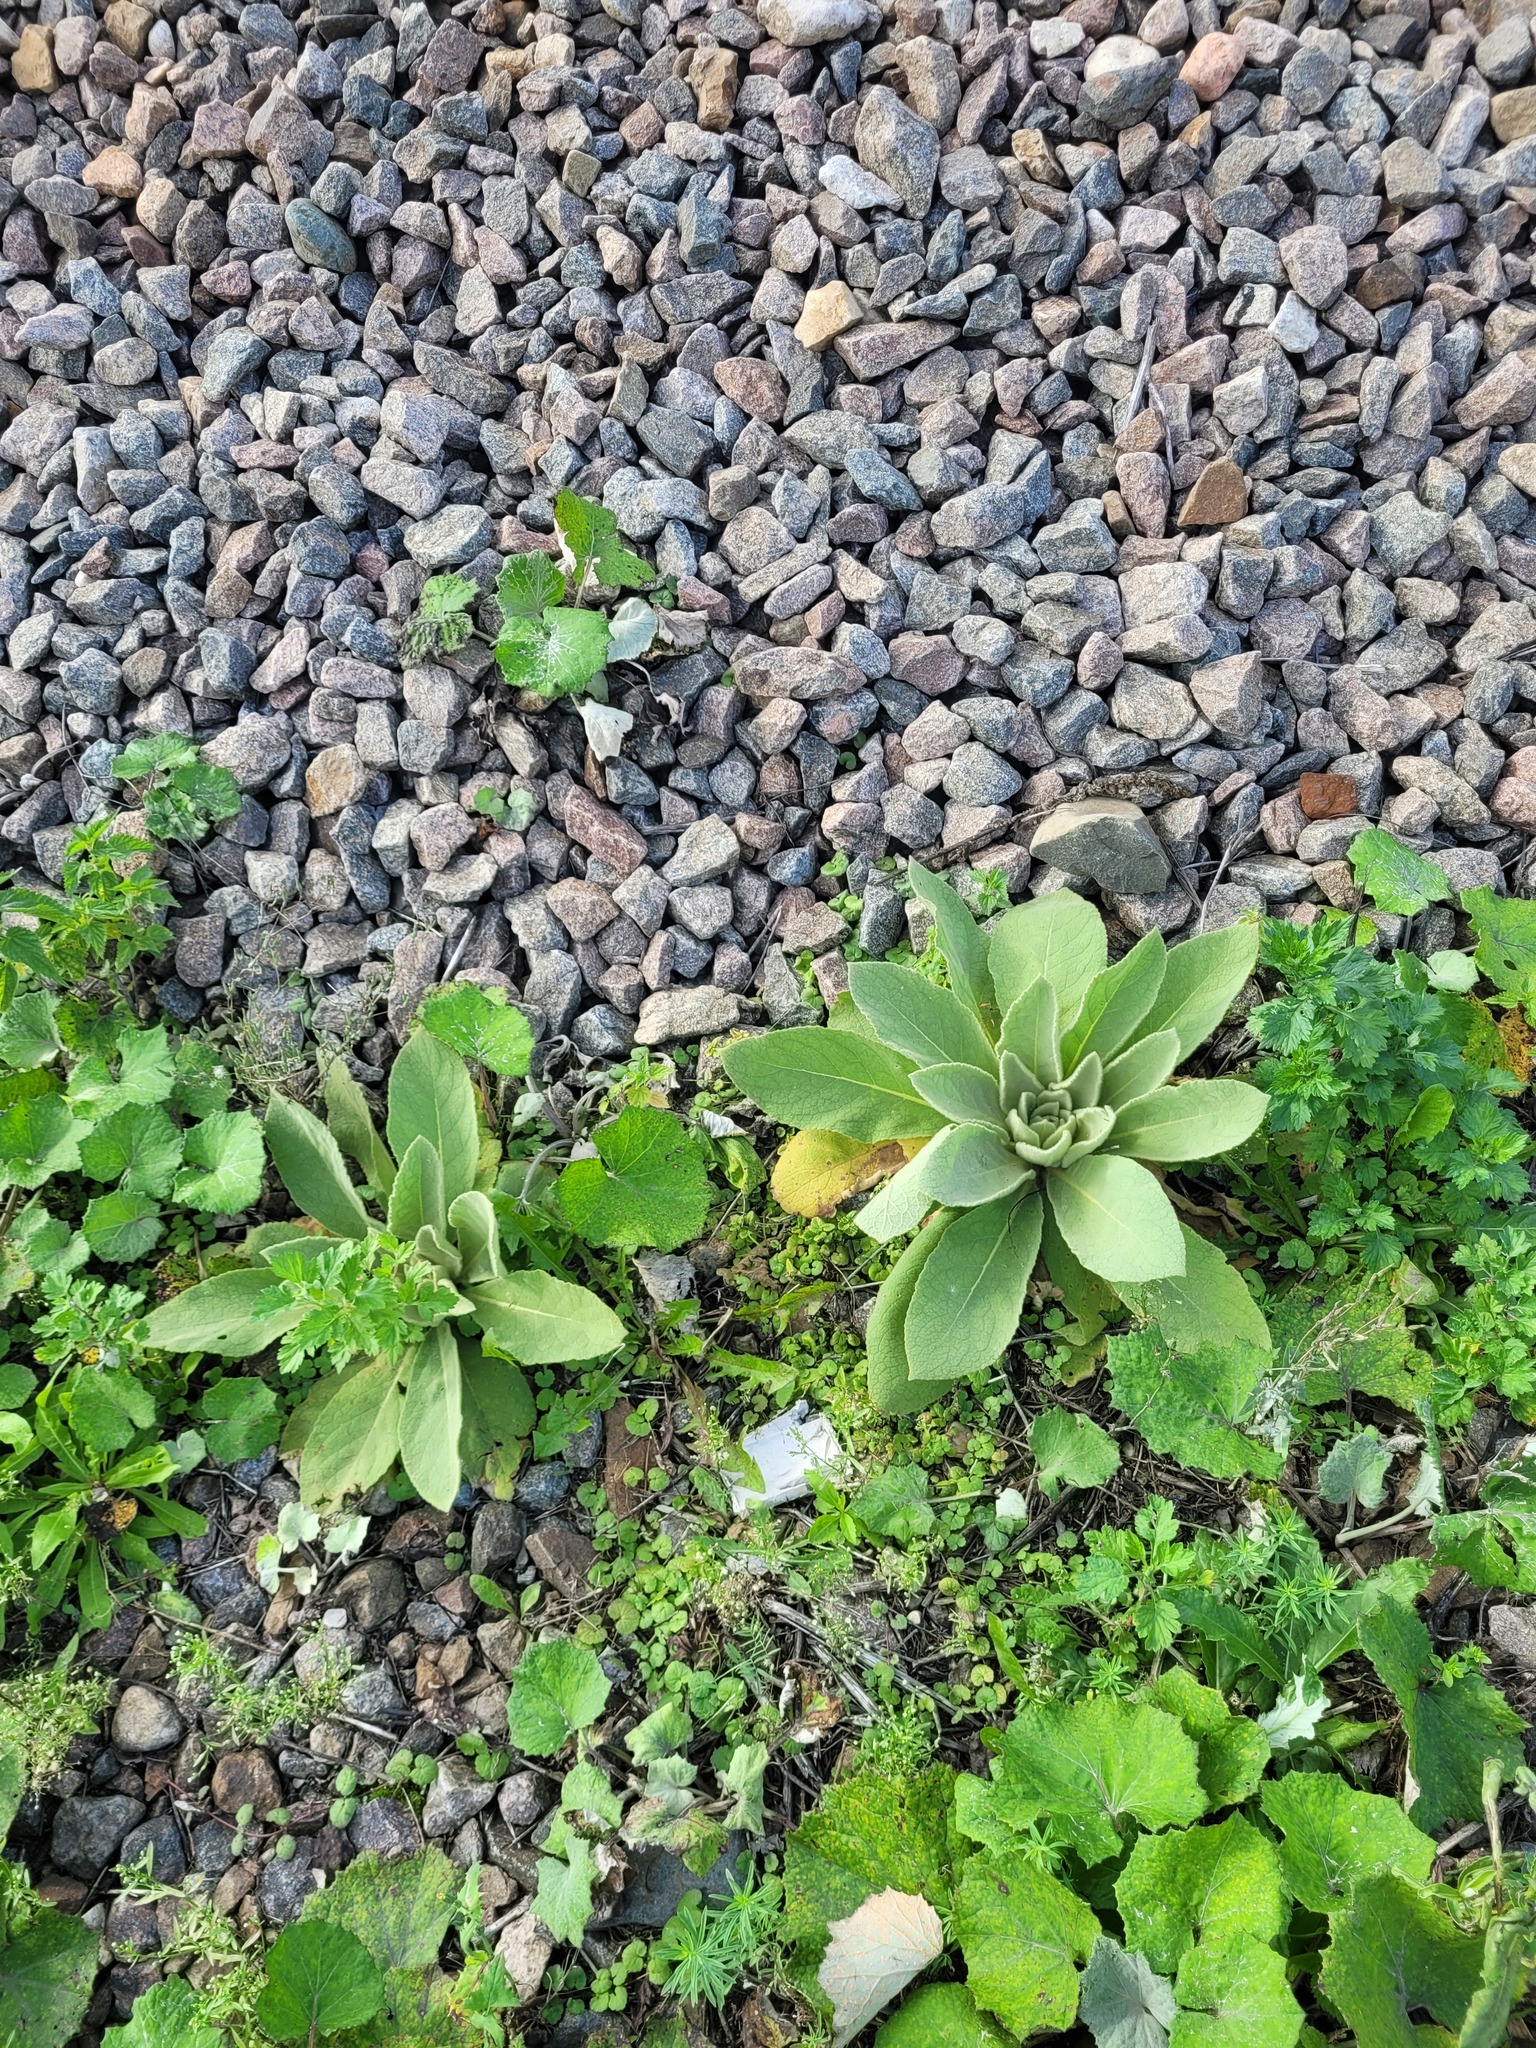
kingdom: Plantae
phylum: Tracheophyta
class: Magnoliopsida
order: Lamiales
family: Scrophulariaceae
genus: Verbascum
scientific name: Verbascum thapsus
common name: Common mullein
